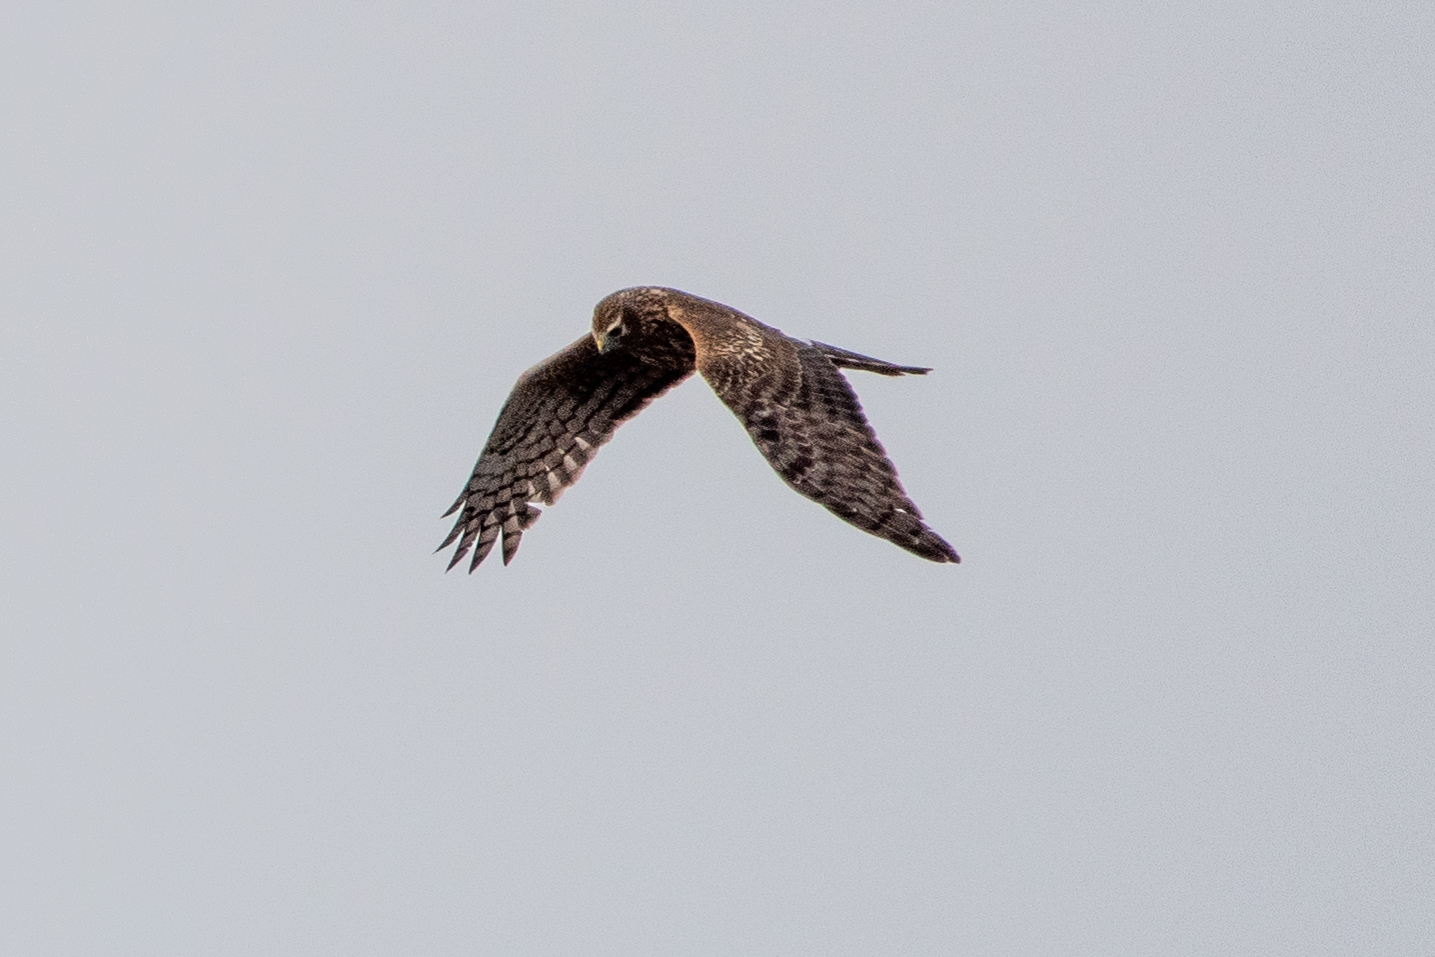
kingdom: Animalia
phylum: Chordata
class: Aves
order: Accipitriformes
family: Accipitridae
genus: Circus
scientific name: Circus cyaneus
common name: Hen harrier
